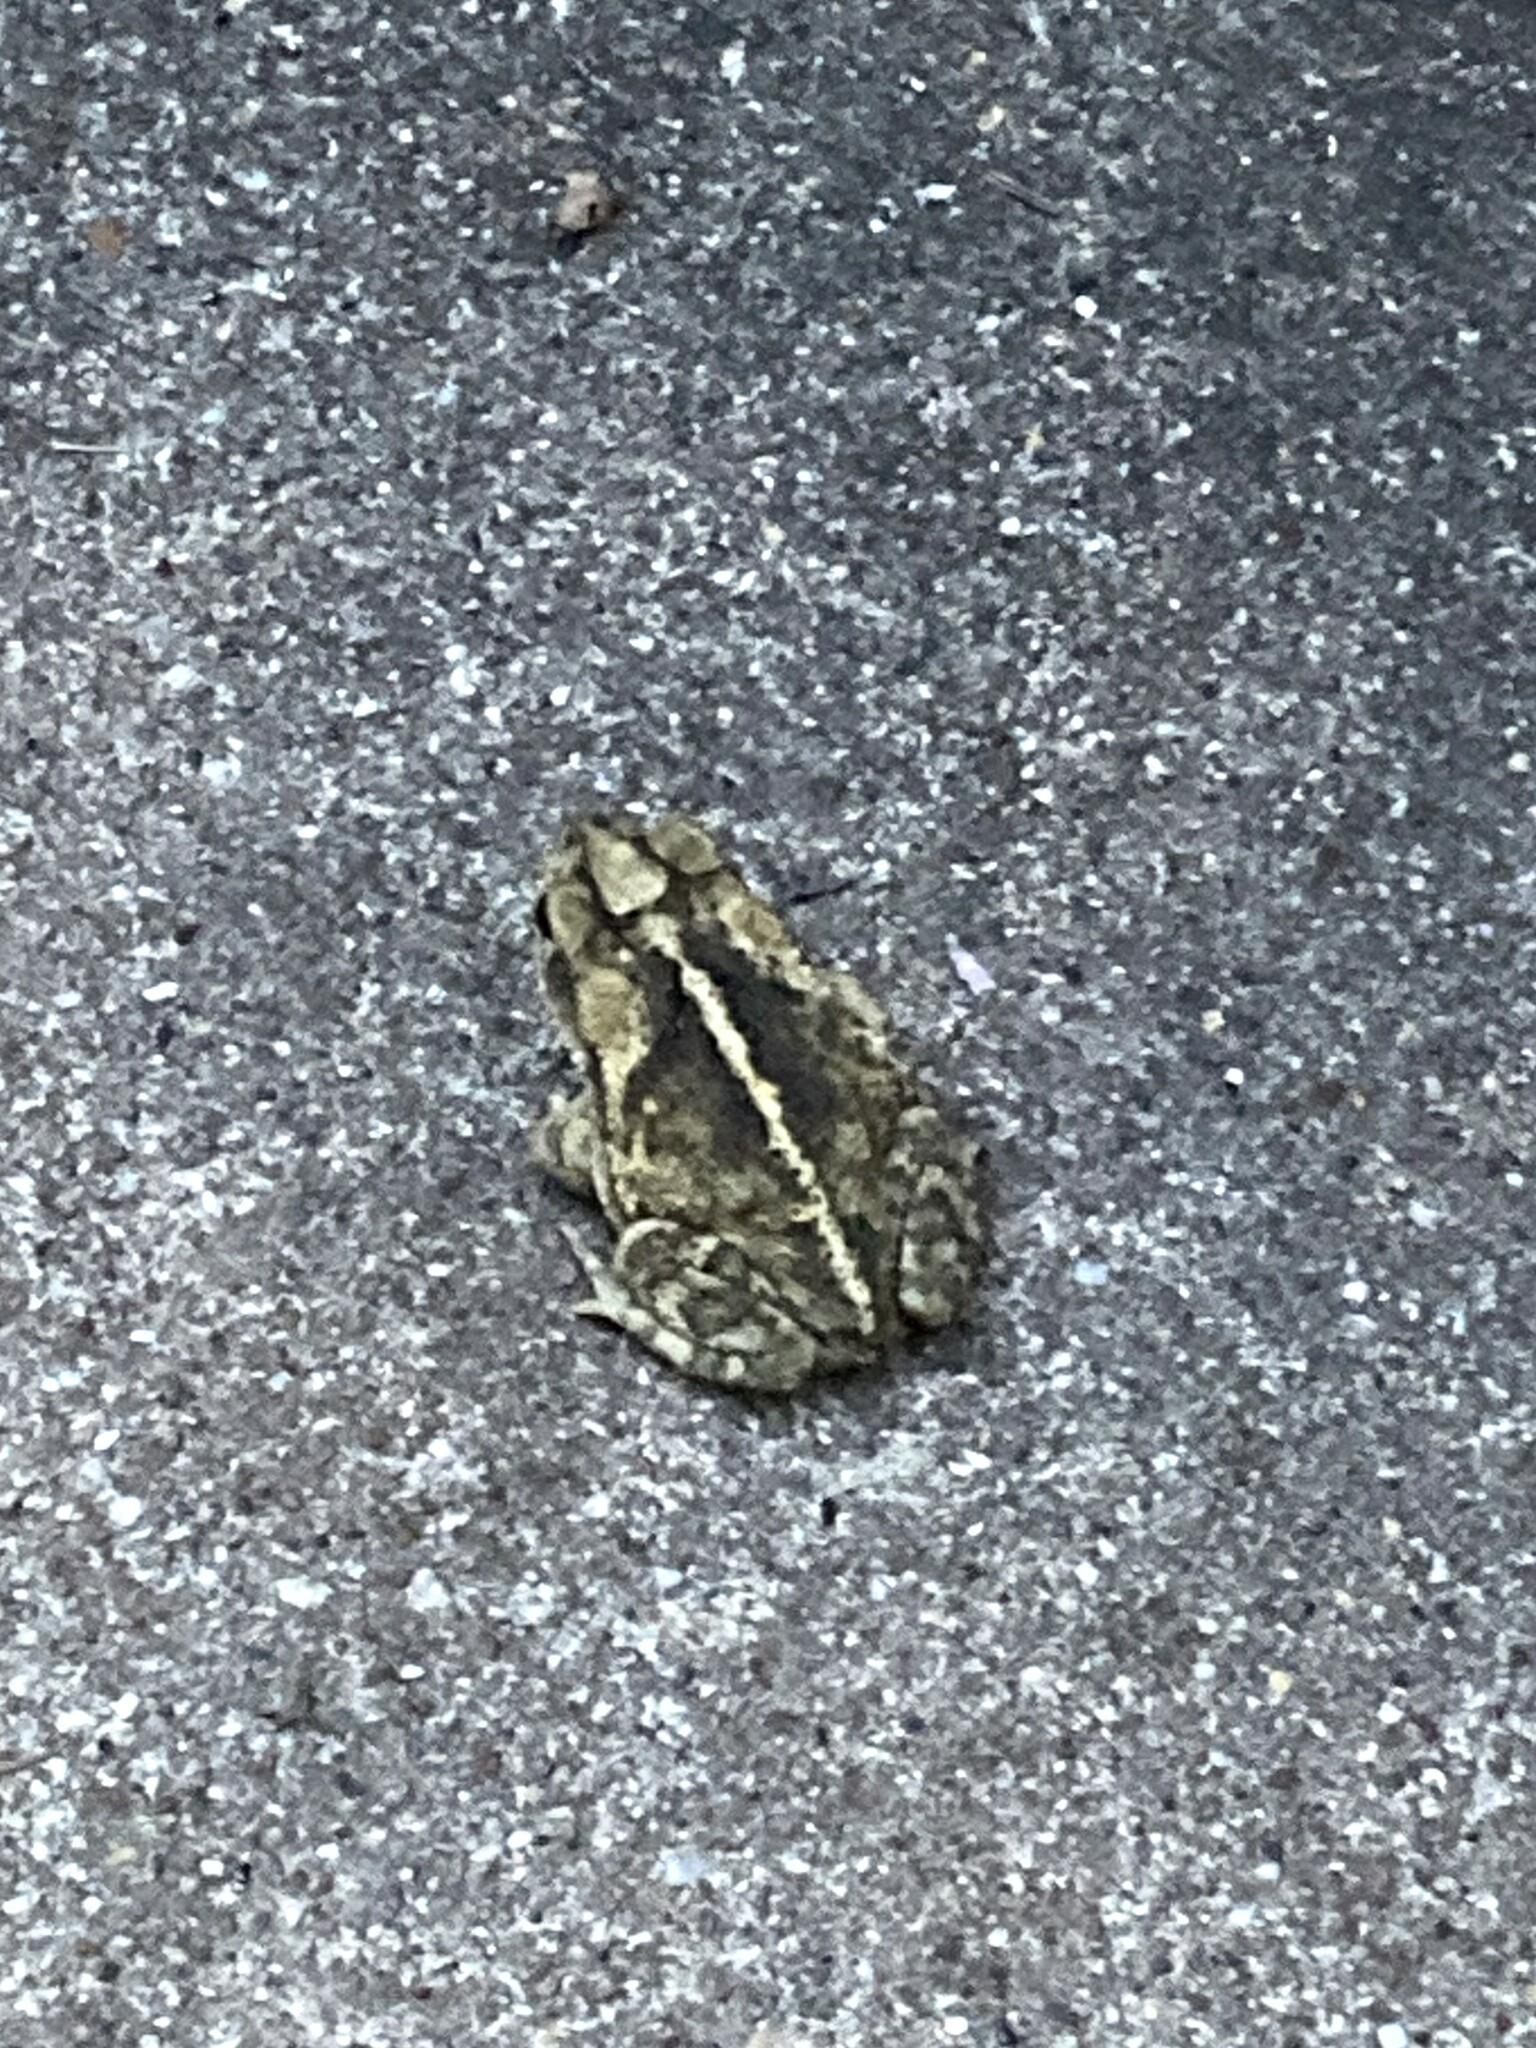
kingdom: Animalia
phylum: Chordata
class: Amphibia
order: Anura
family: Bufonidae
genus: Incilius
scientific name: Incilius nebulifer
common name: Gulf coast toad
